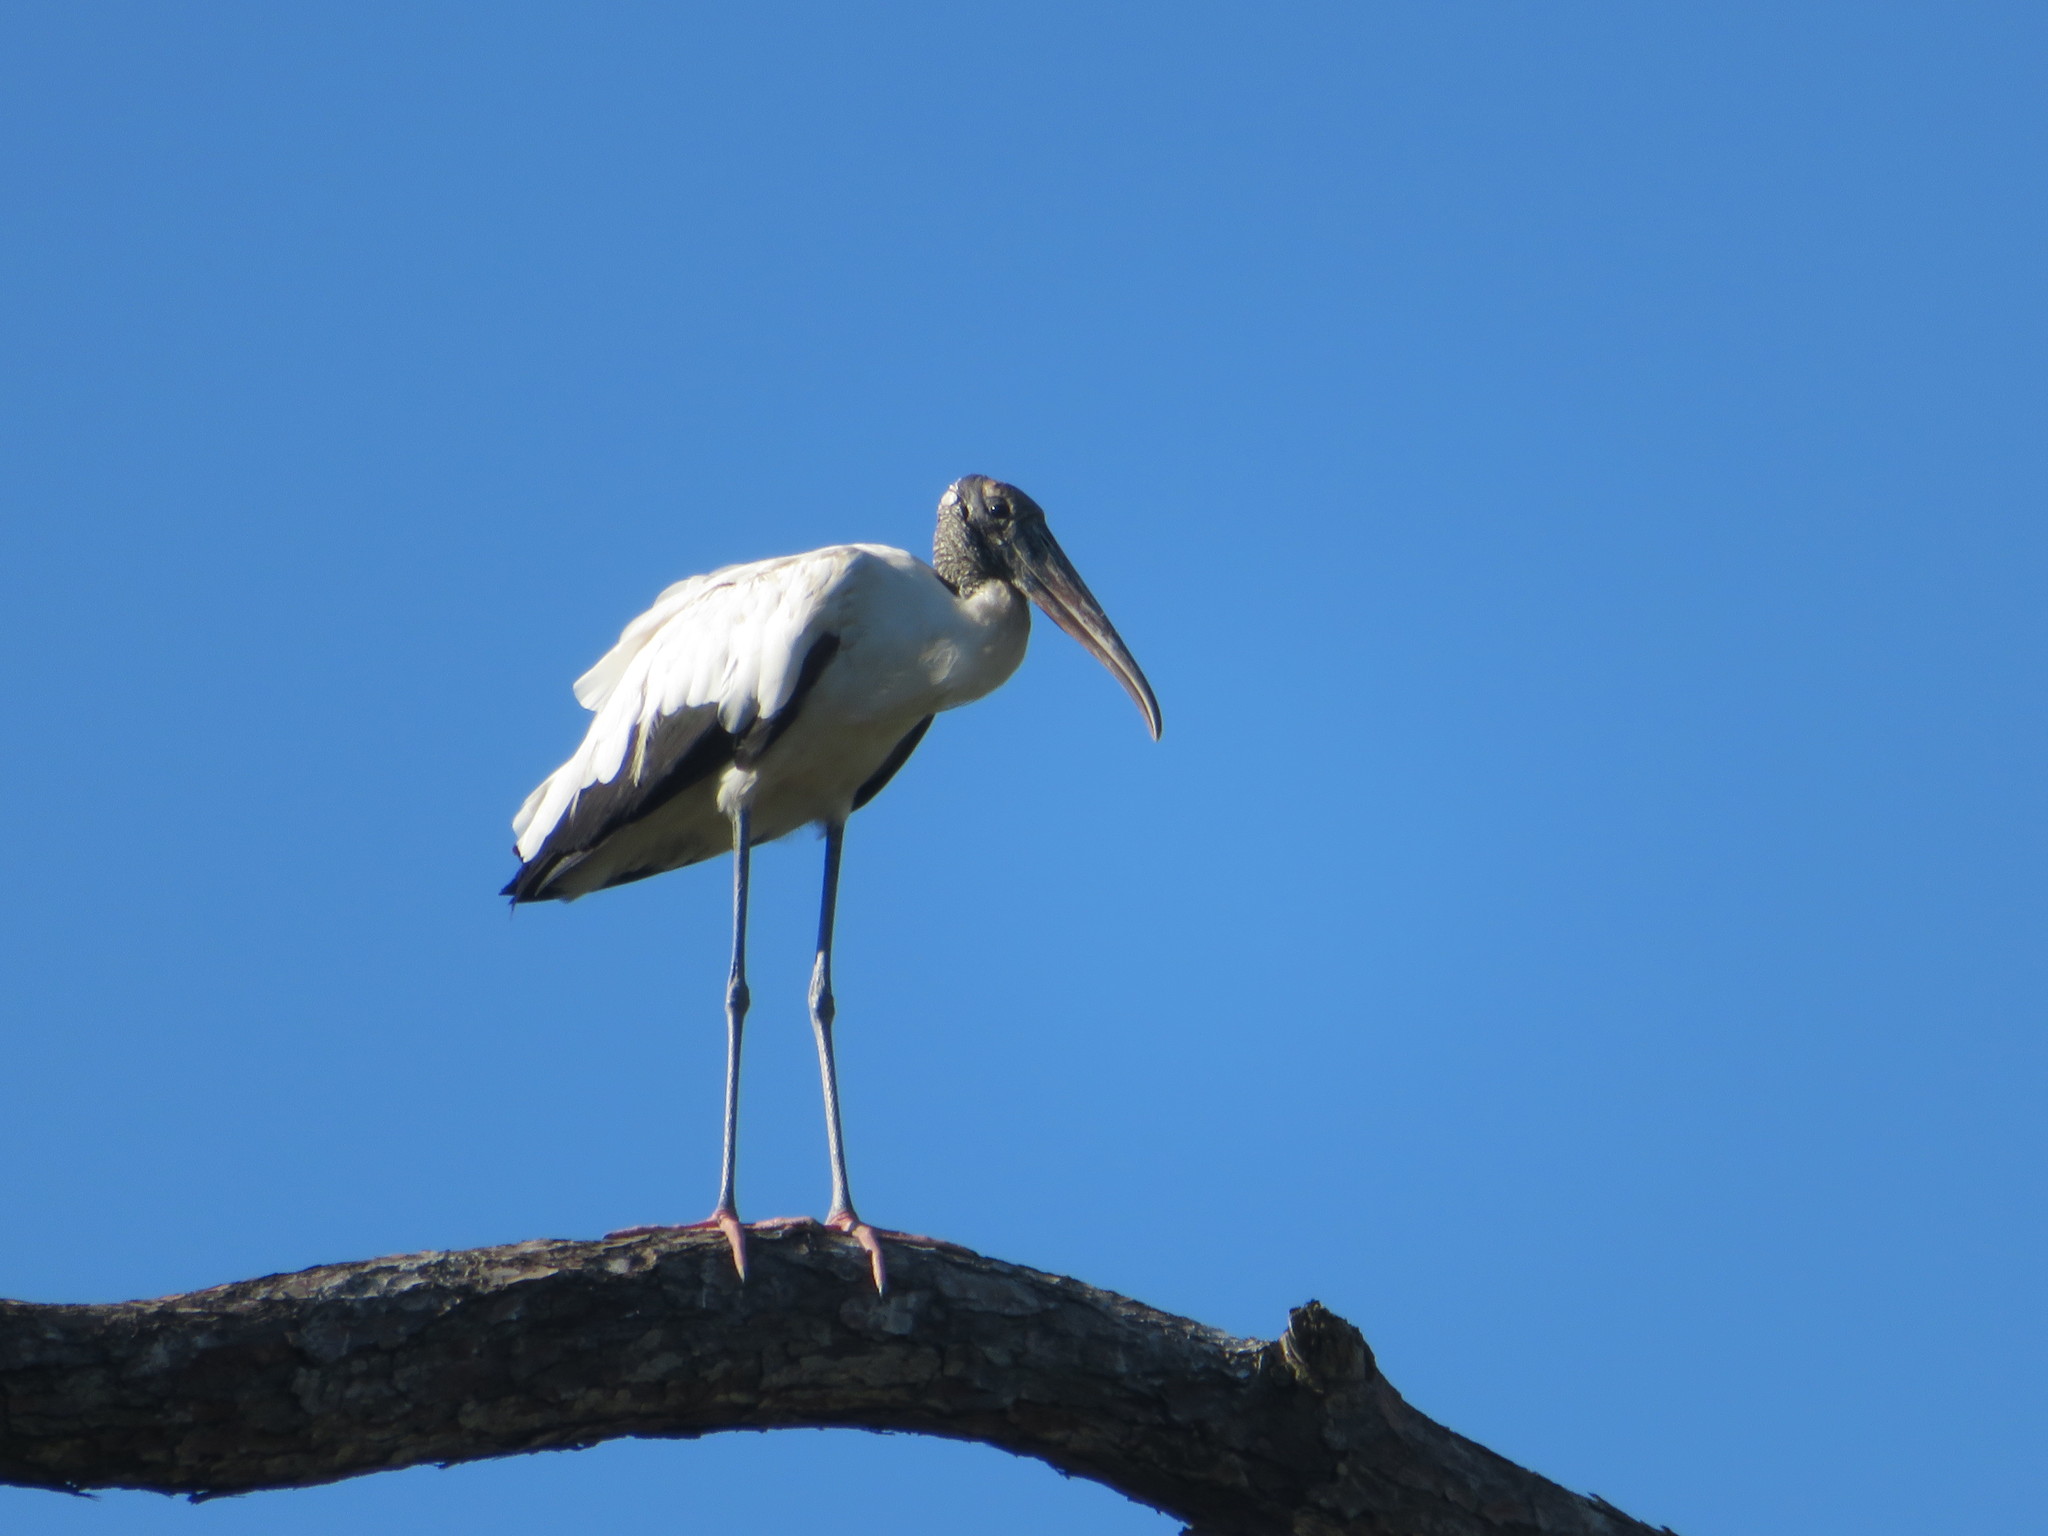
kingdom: Animalia
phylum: Chordata
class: Aves
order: Ciconiiformes
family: Ciconiidae
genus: Mycteria
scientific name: Mycteria americana
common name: Wood stork
